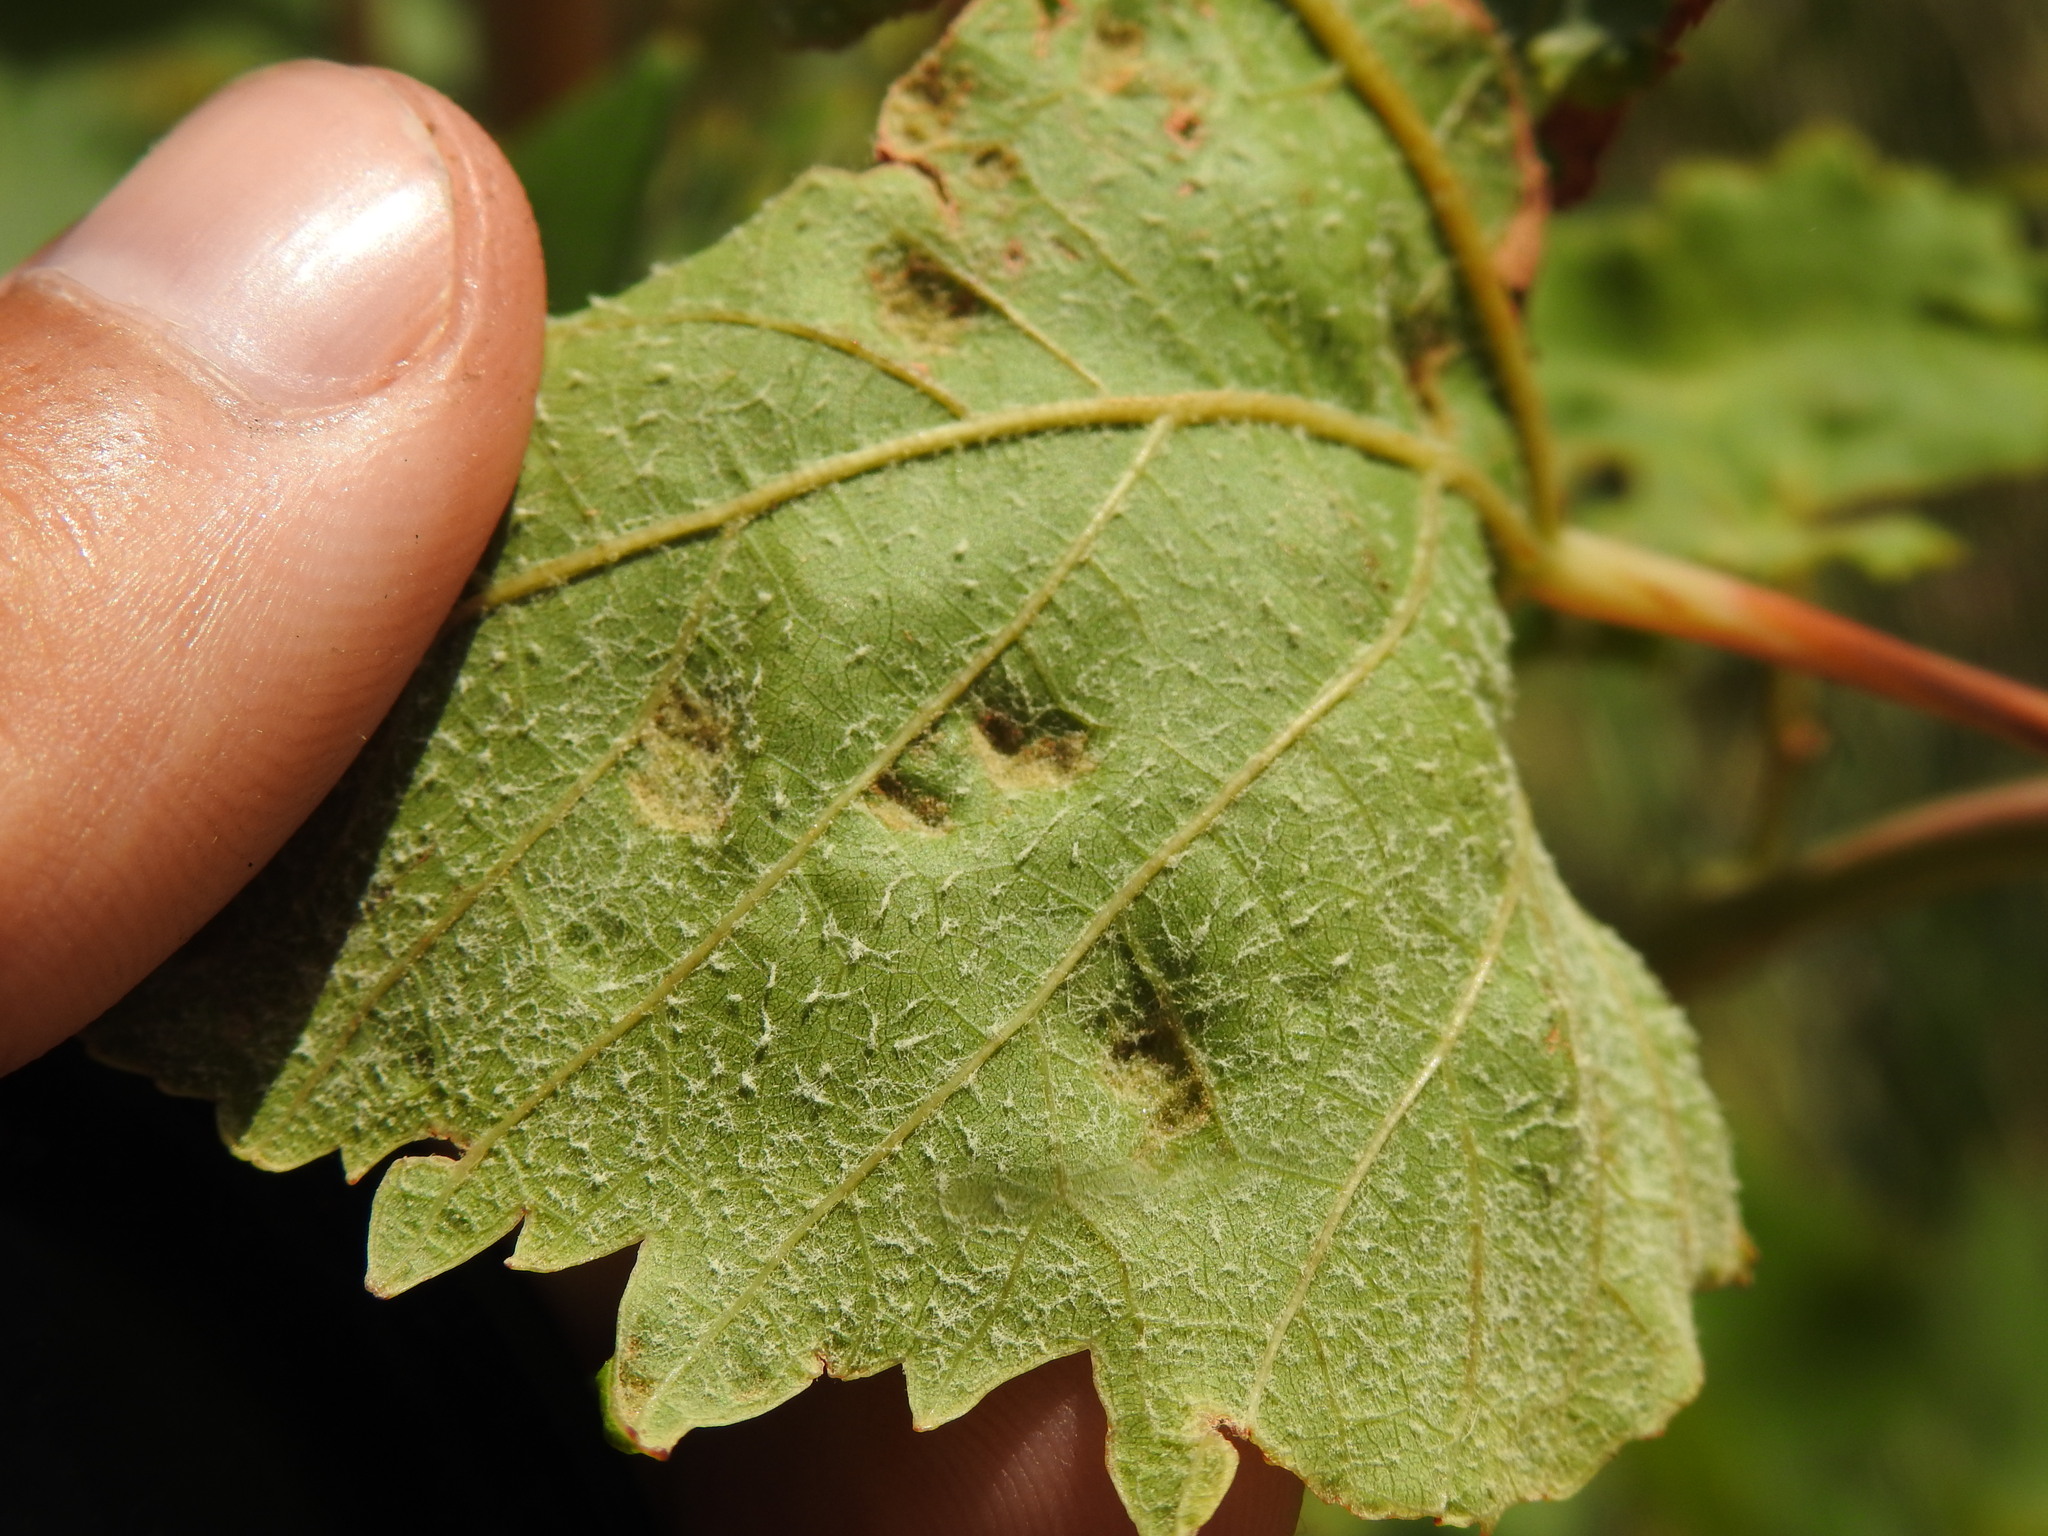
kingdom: Animalia
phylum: Arthropoda
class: Arachnida
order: Trombidiformes
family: Eriophyidae
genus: Colomerus
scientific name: Colomerus vitis
